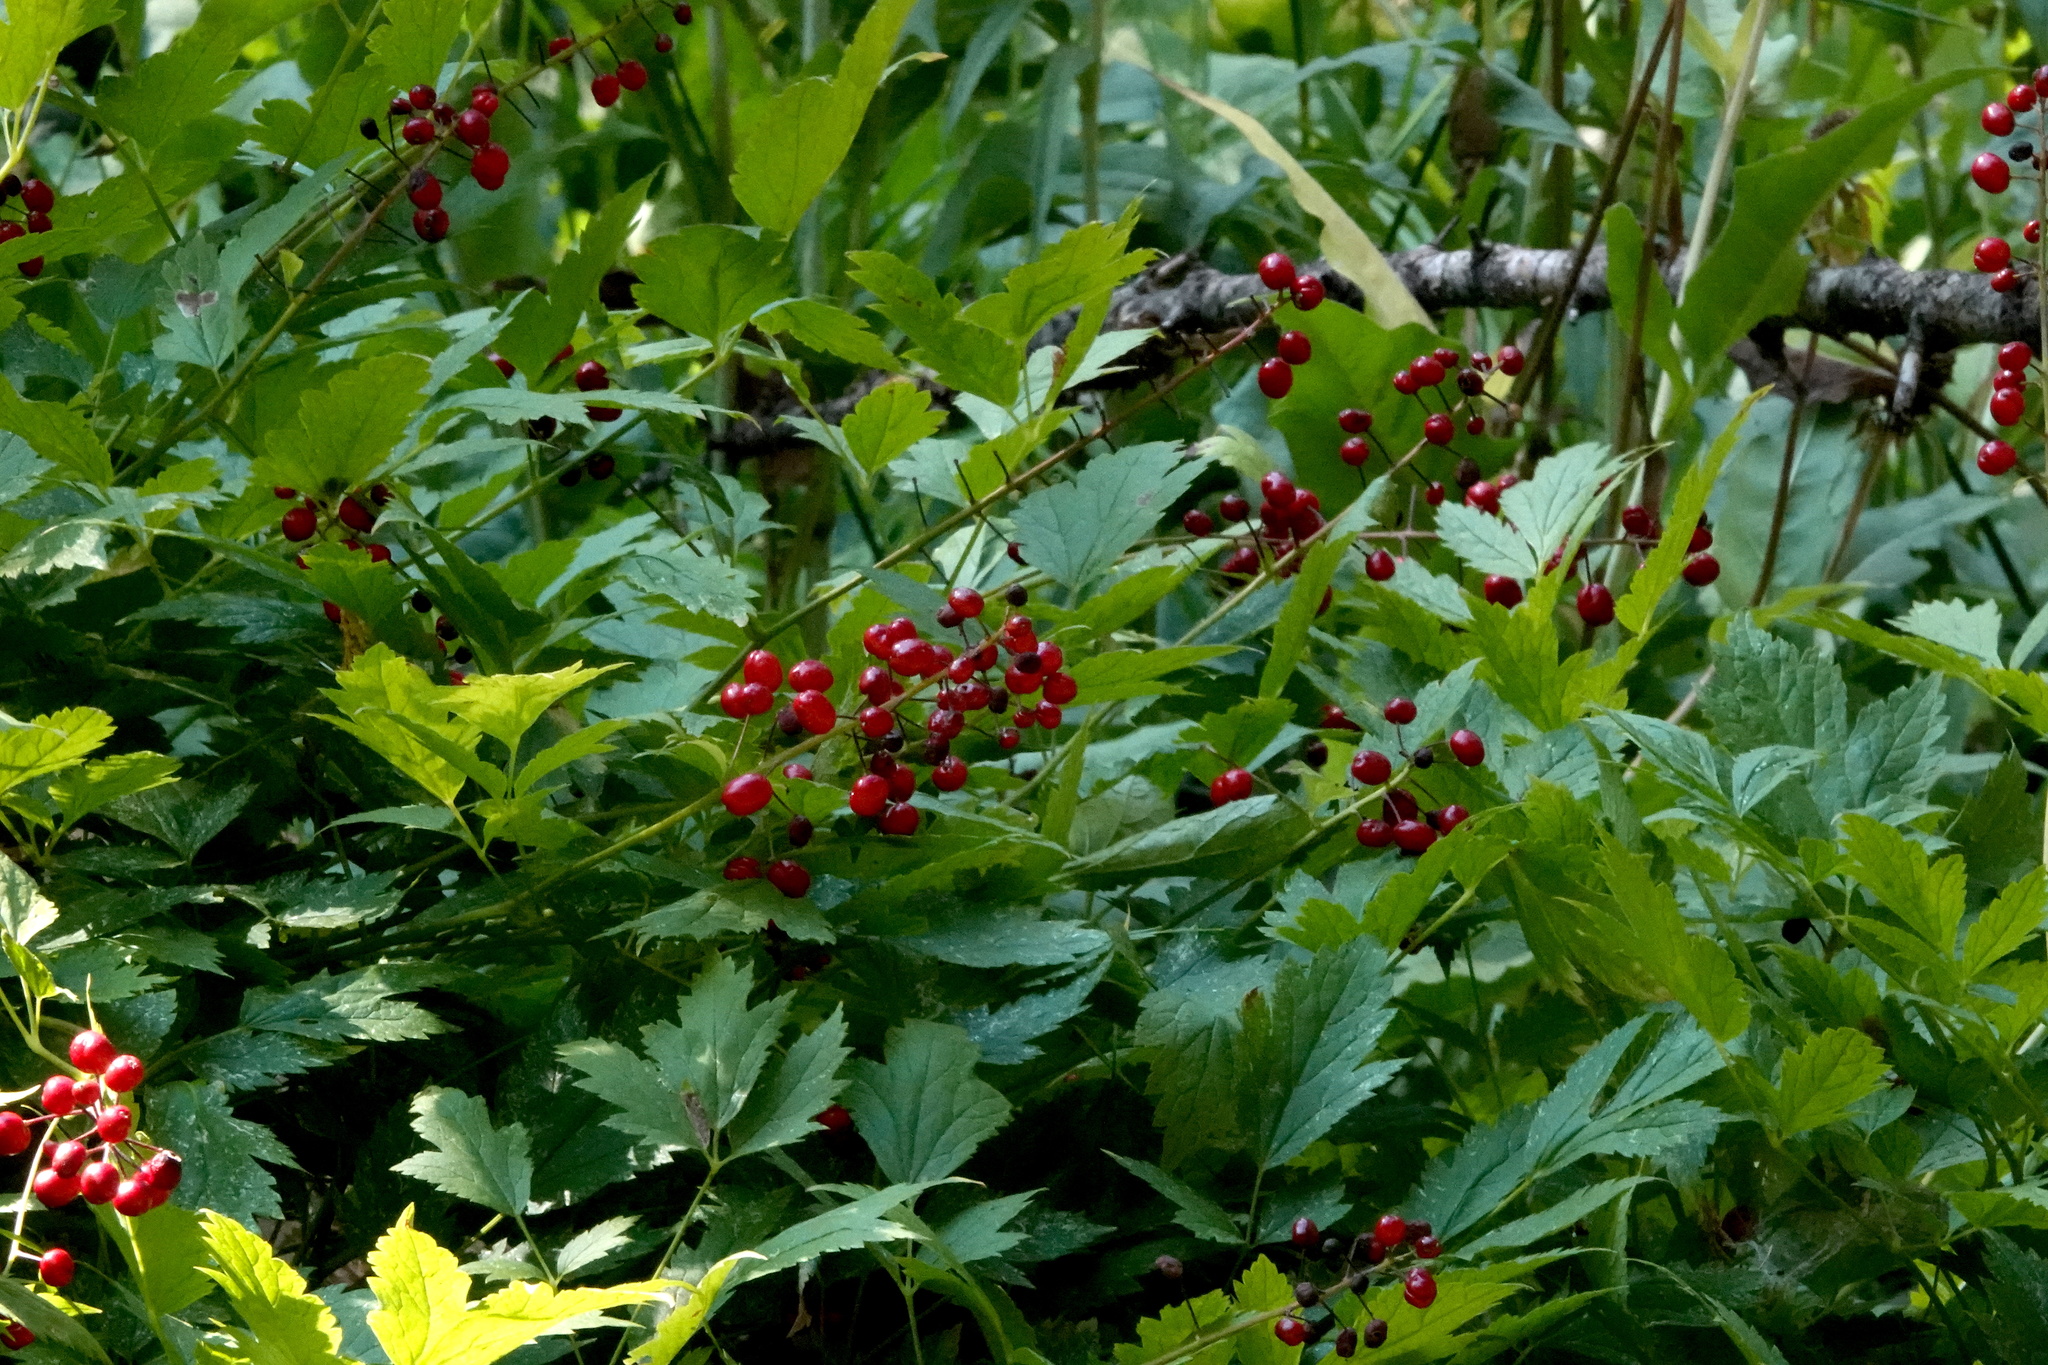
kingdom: Plantae
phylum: Tracheophyta
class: Magnoliopsida
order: Ranunculales
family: Ranunculaceae
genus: Actaea
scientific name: Actaea rubra
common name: Red baneberry
